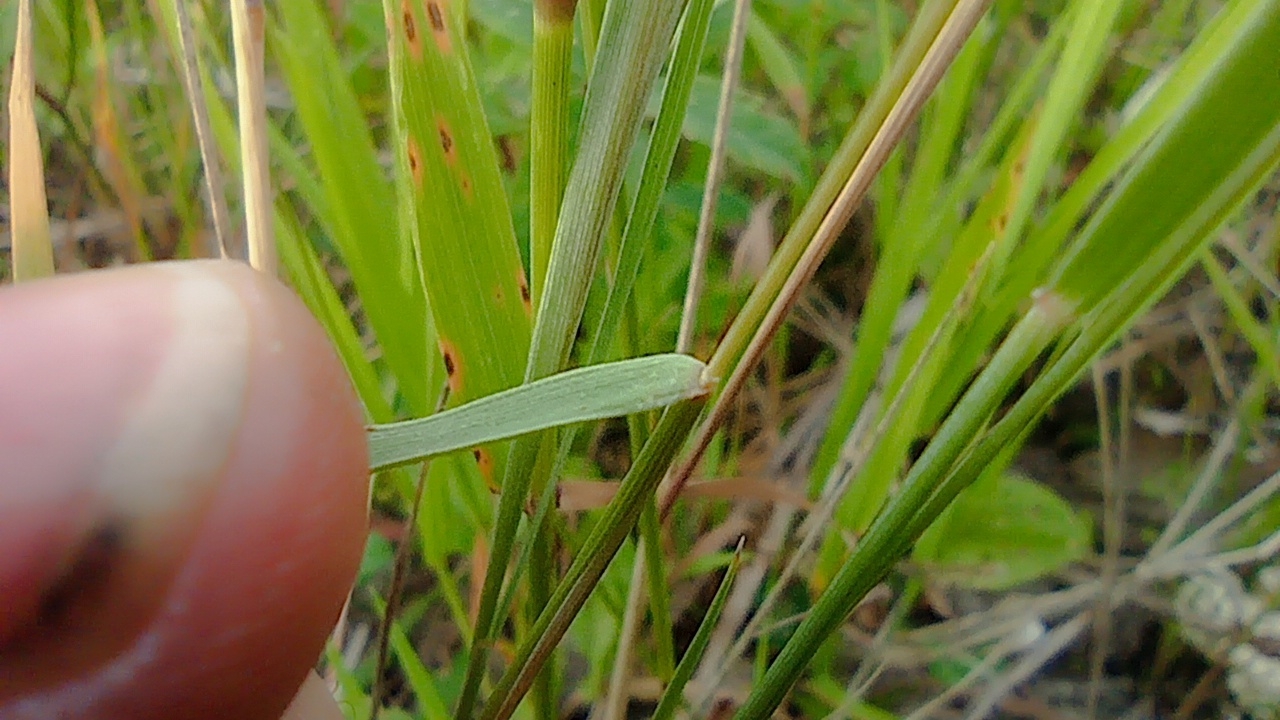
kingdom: Plantae
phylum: Tracheophyta
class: Liliopsida
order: Poales
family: Poaceae
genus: Hordeum
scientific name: Hordeum jubatum
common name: Foxtail barley
